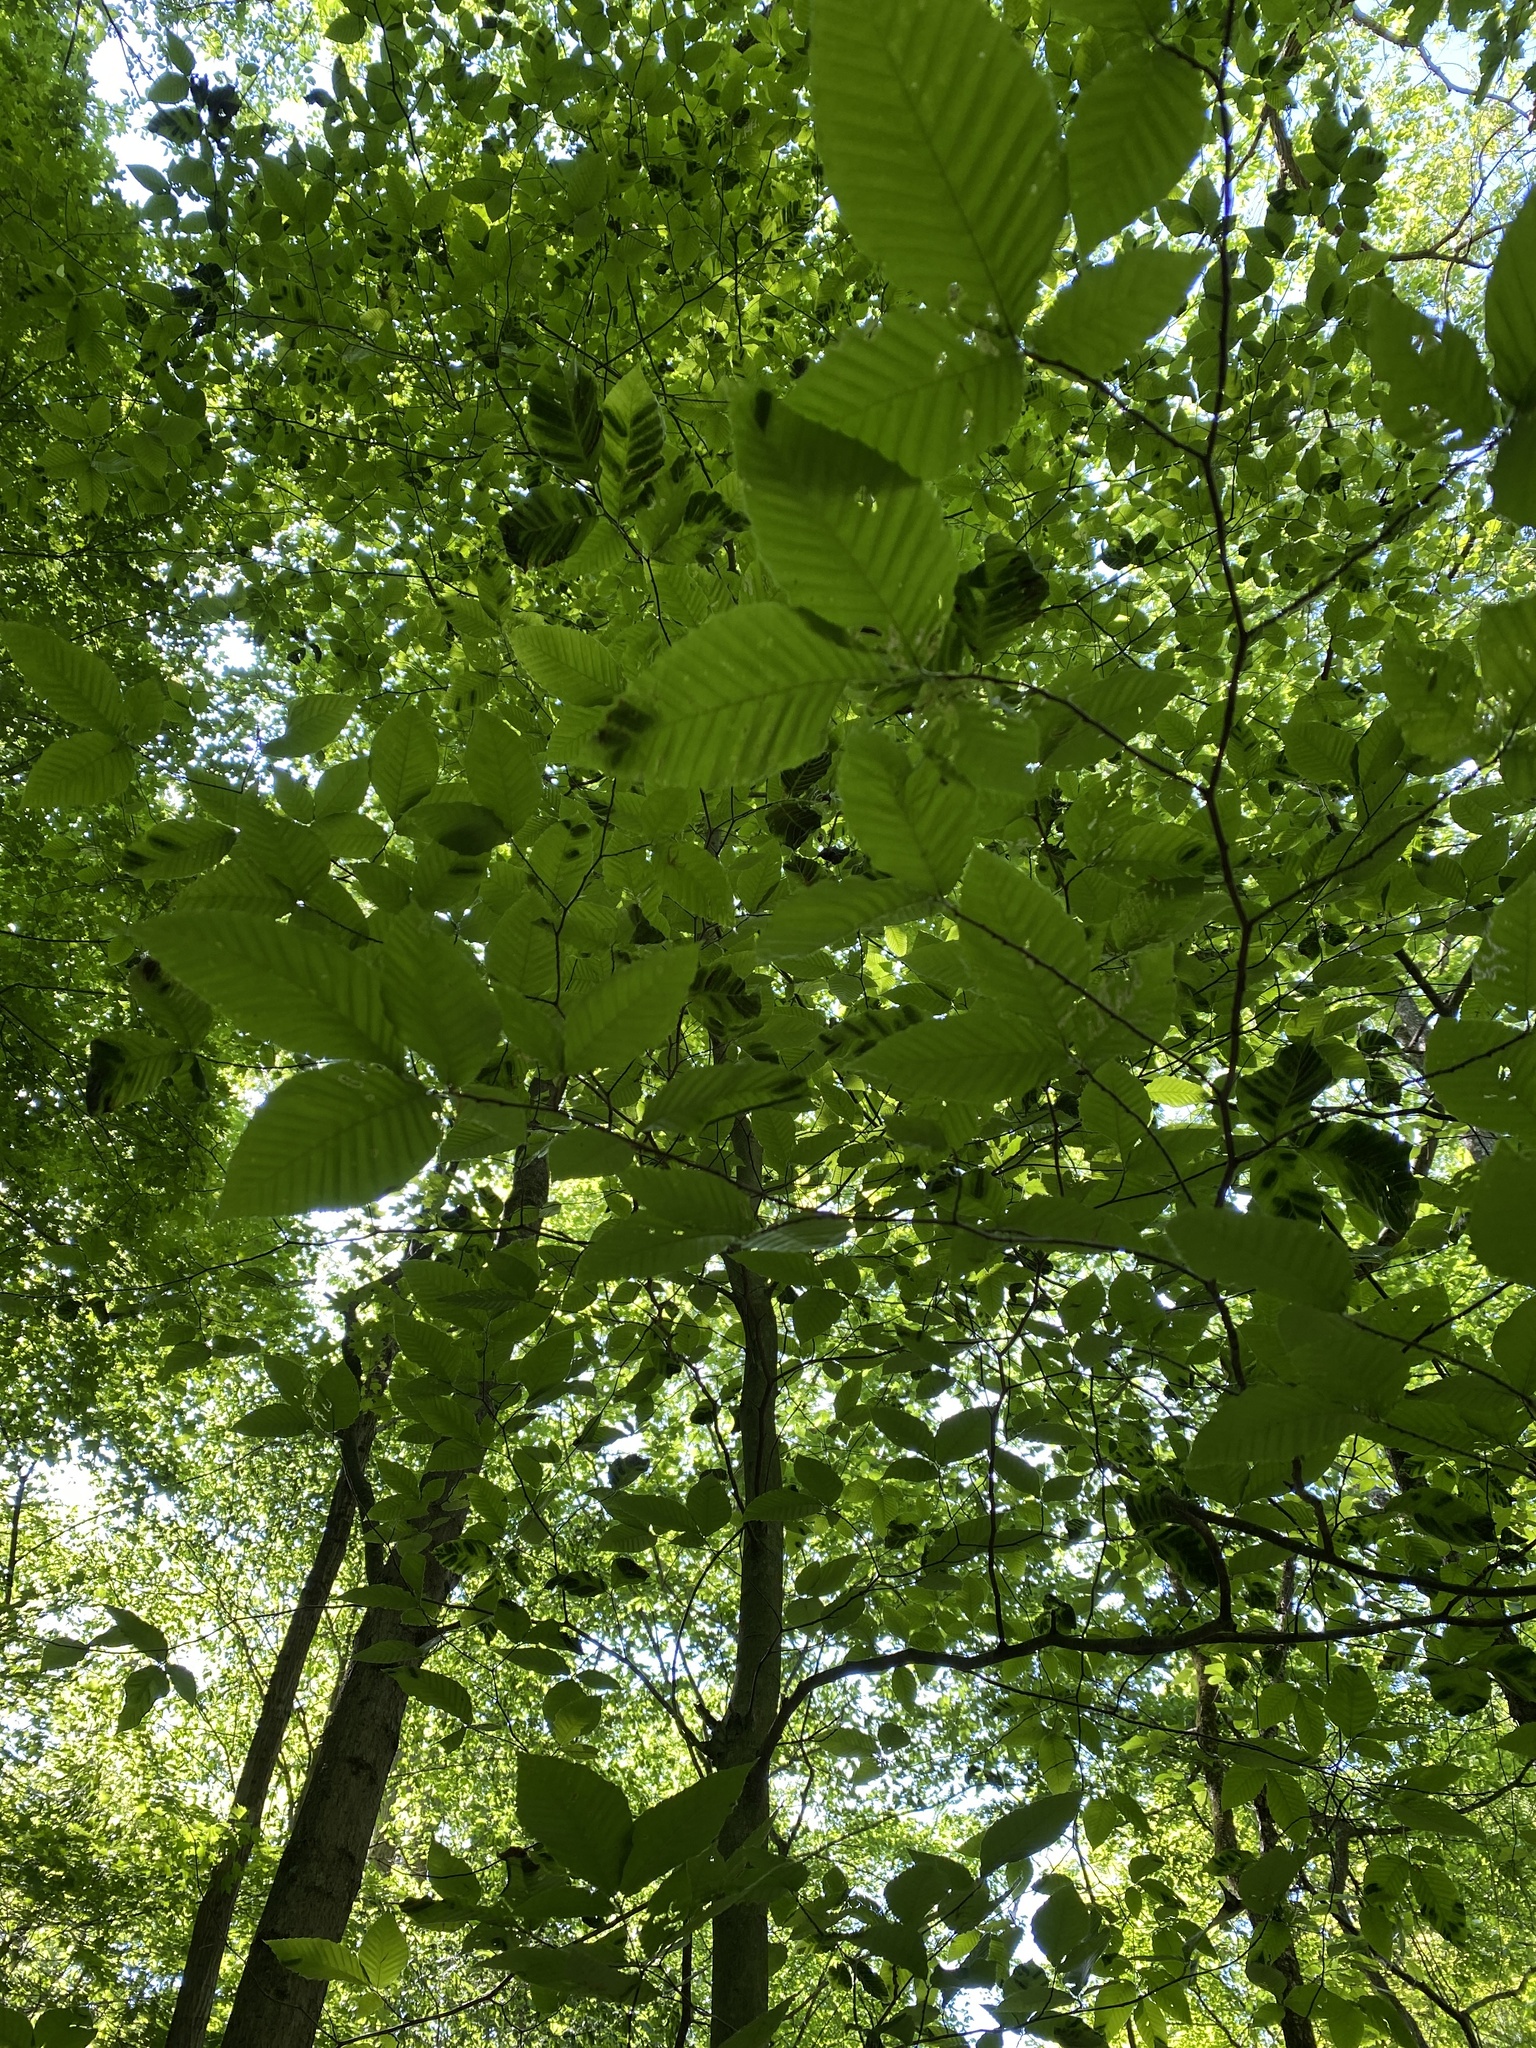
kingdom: Plantae
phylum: Tracheophyta
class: Magnoliopsida
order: Fagales
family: Fagaceae
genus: Fagus
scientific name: Fagus grandifolia
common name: American beech
